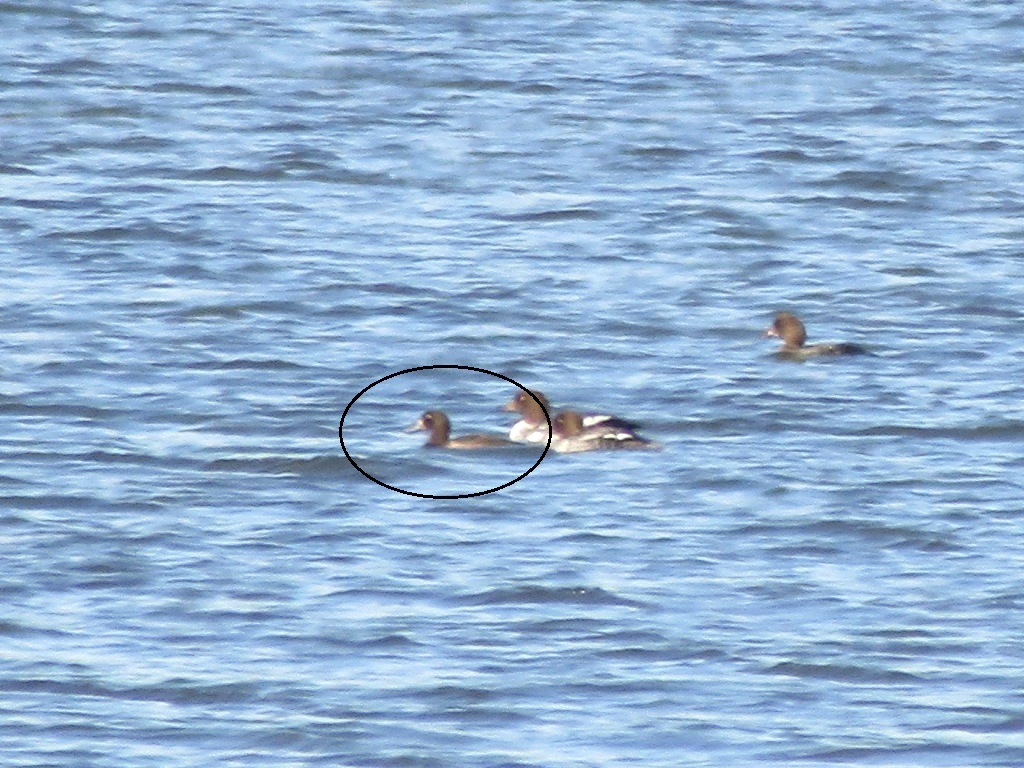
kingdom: Animalia
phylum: Chordata
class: Aves
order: Anseriformes
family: Anatidae
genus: Aythya
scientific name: Aythya fuligula
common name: Tufted duck
